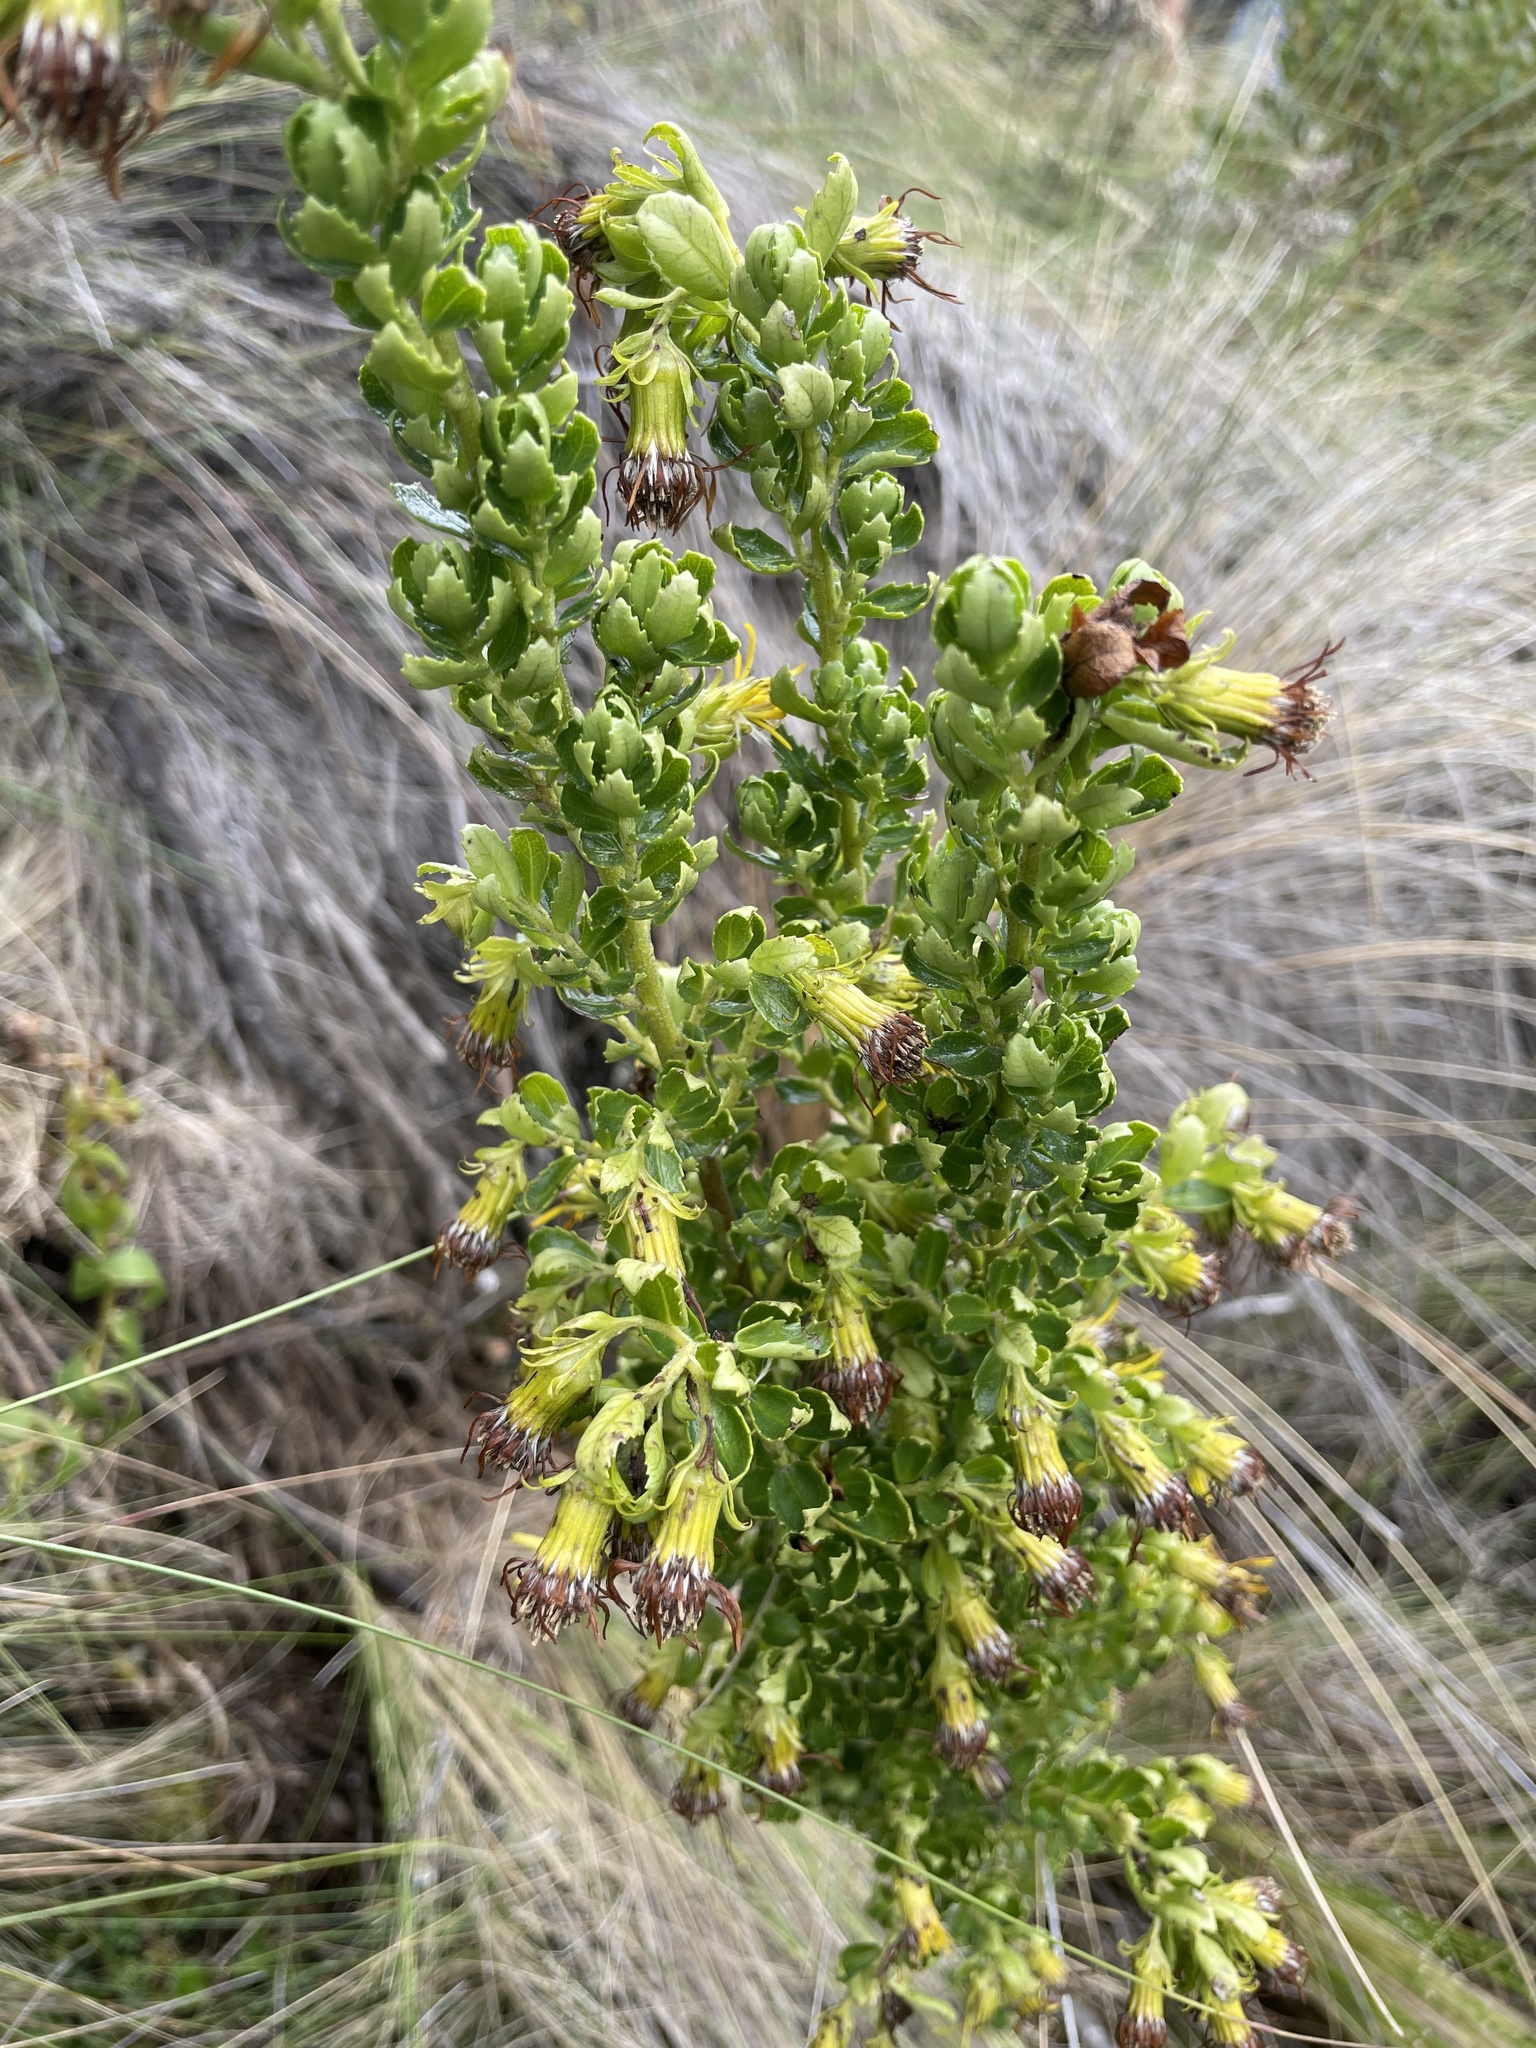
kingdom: Plantae
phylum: Tracheophyta
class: Magnoliopsida
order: Asterales
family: Asteraceae
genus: Monticalia
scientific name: Monticalia arbutifolia
